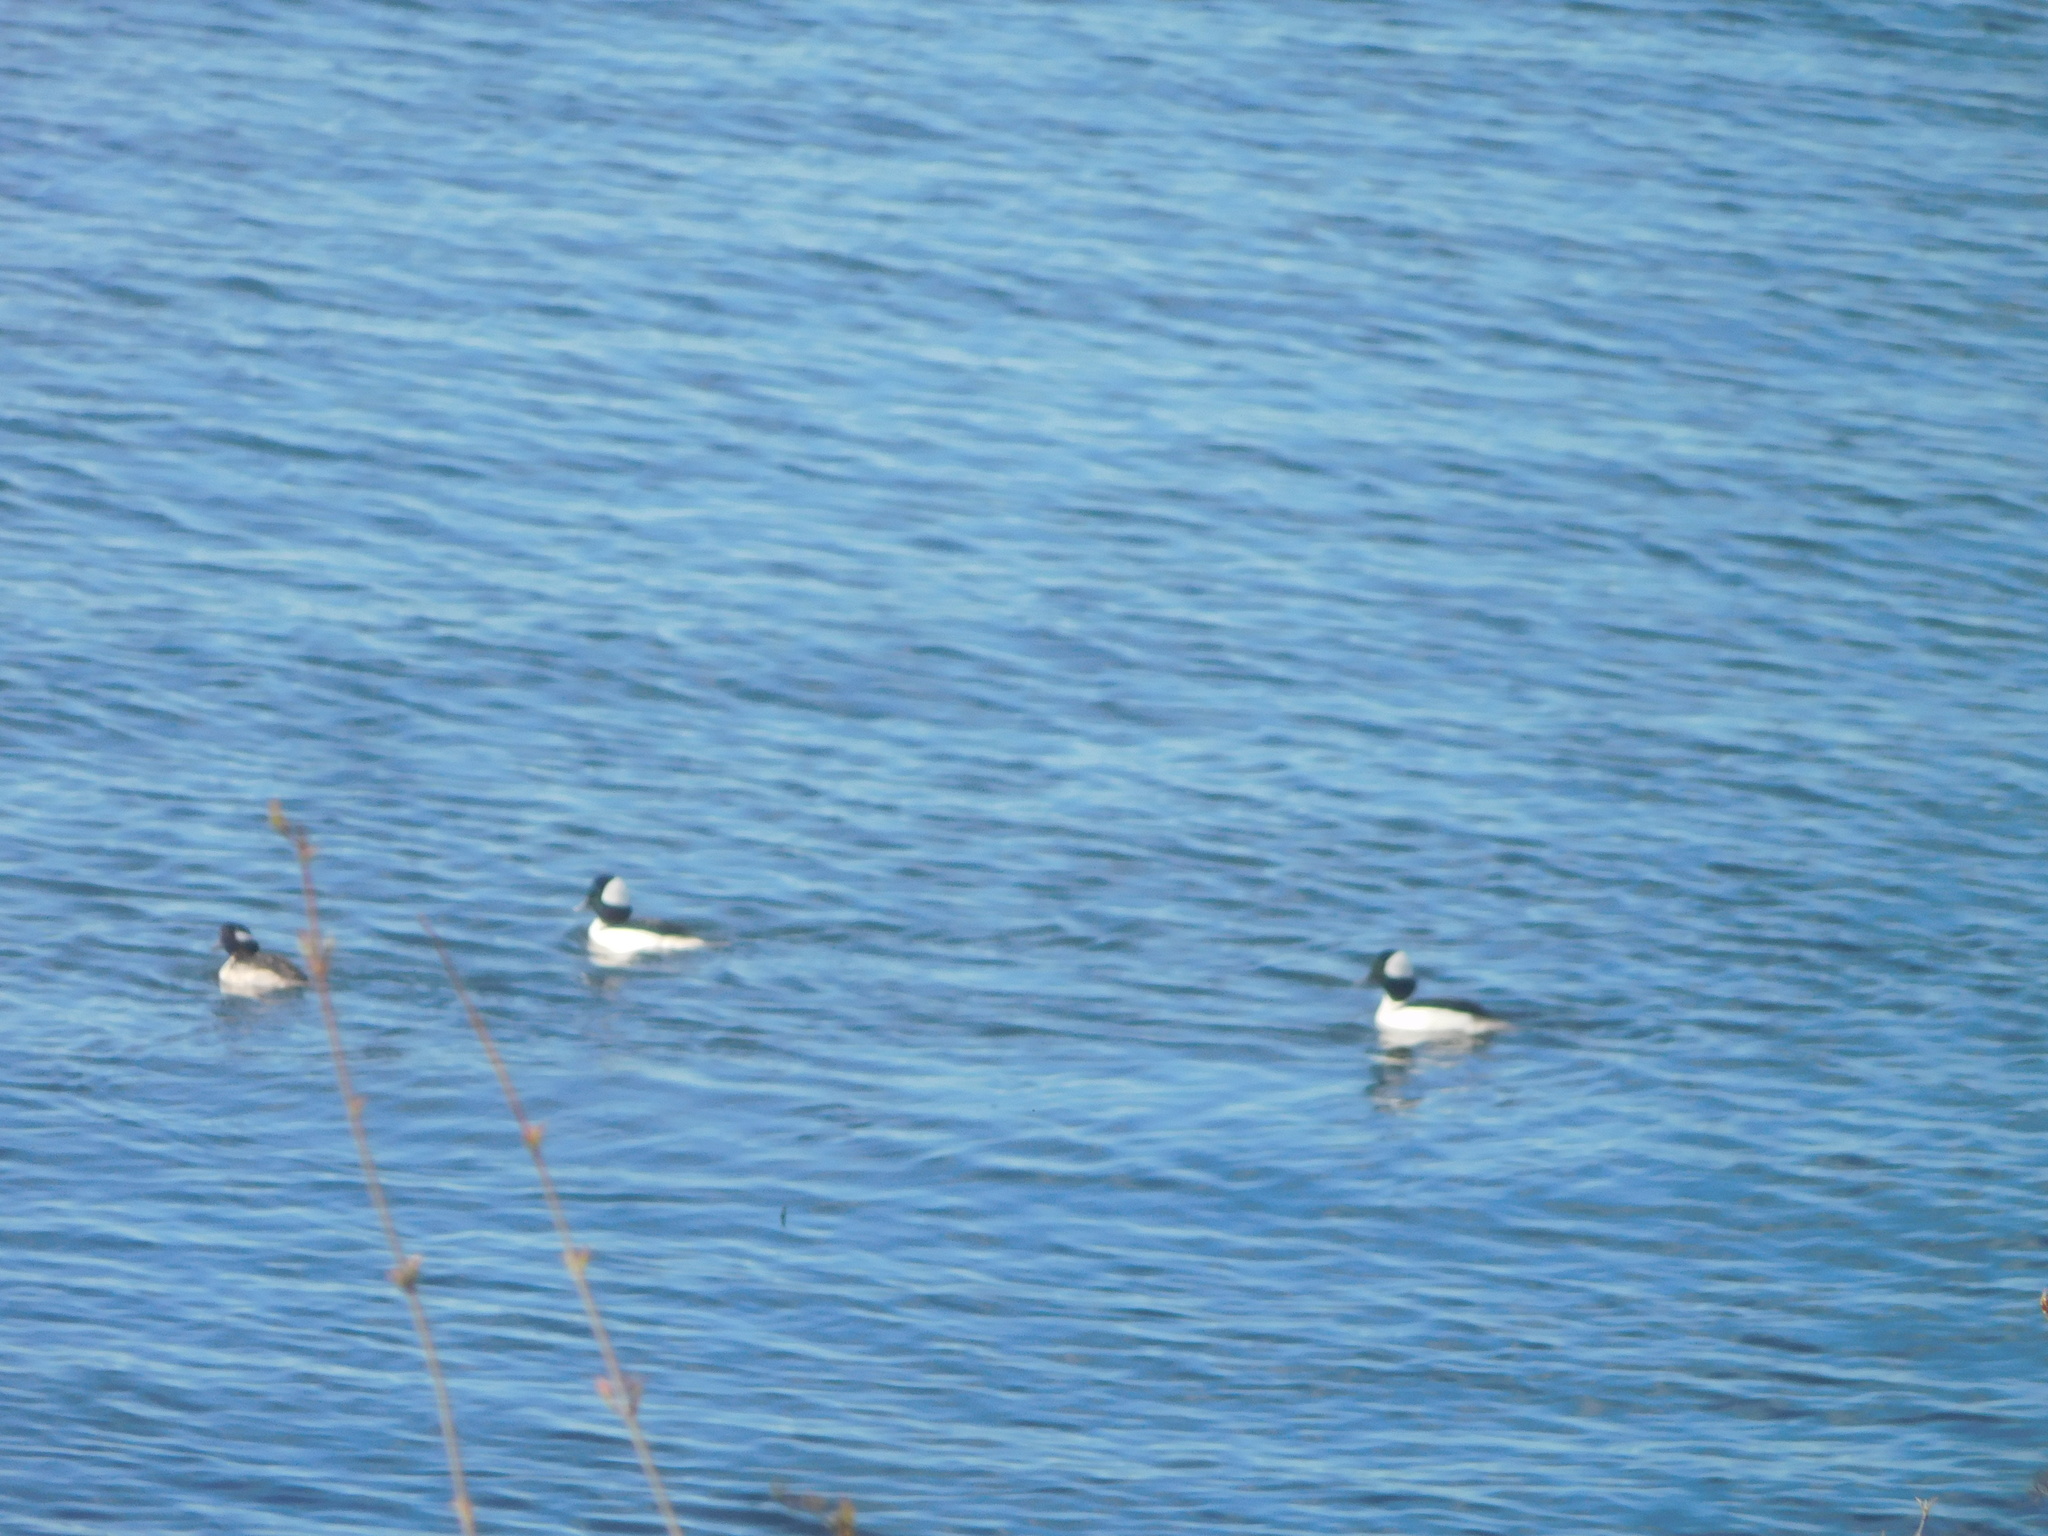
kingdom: Animalia
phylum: Chordata
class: Aves
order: Anseriformes
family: Anatidae
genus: Bucephala
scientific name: Bucephala albeola
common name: Bufflehead
